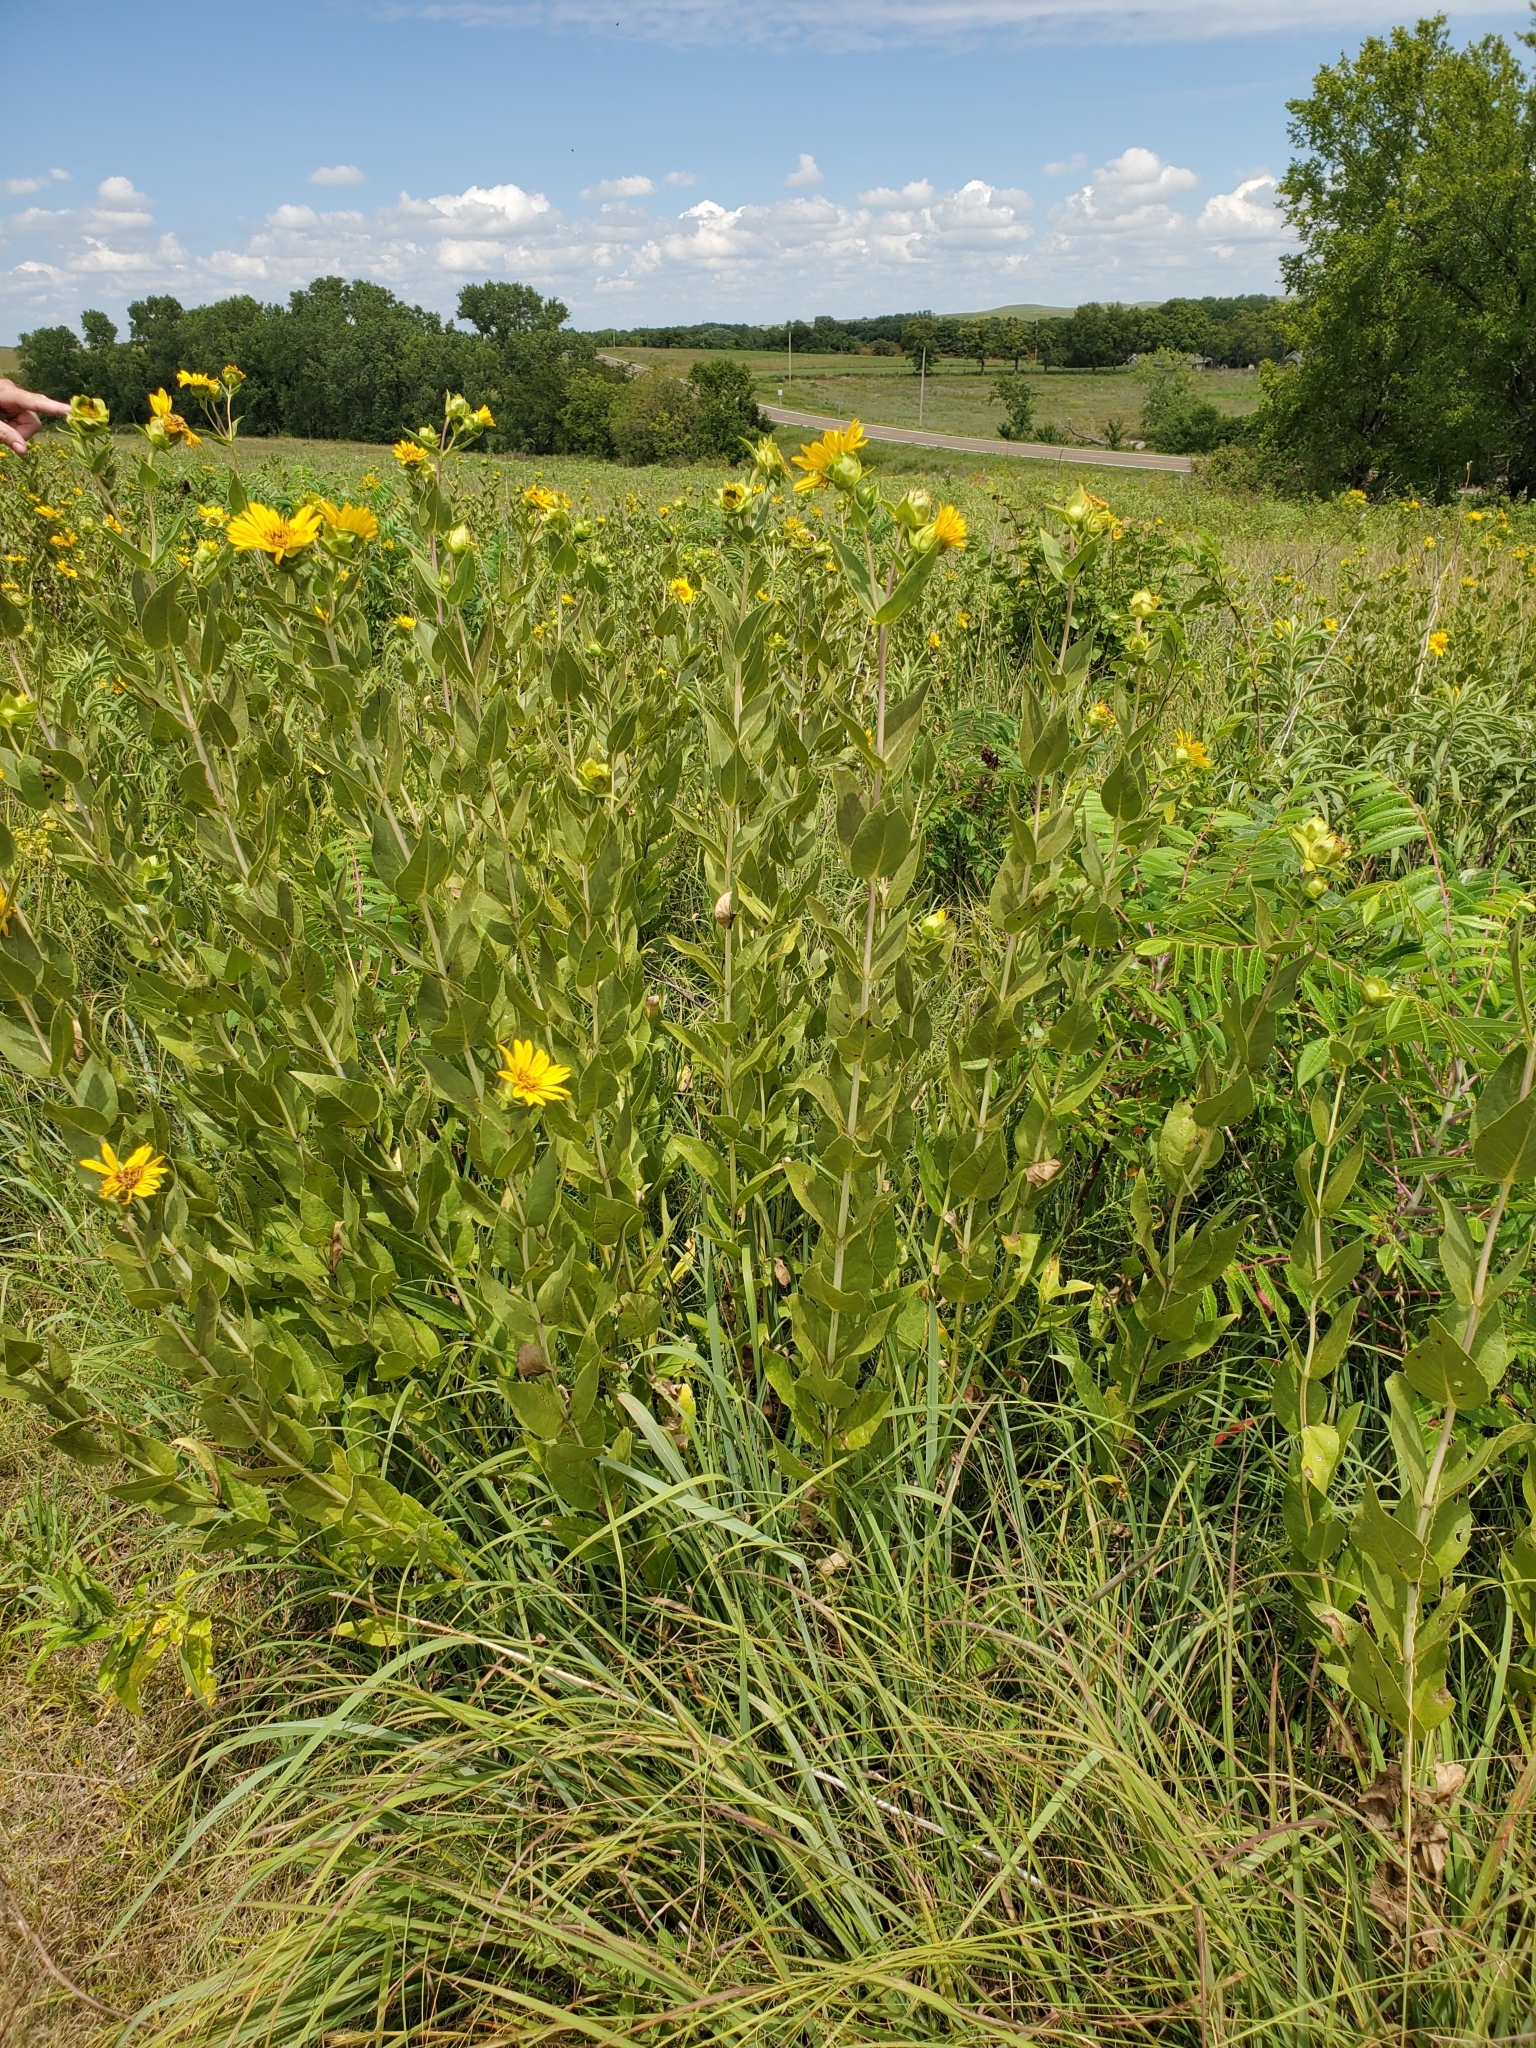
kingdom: Plantae
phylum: Tracheophyta
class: Magnoliopsida
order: Asterales
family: Asteraceae
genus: Silphium
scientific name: Silphium integrifolium
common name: Whole-leaf rosinweed
